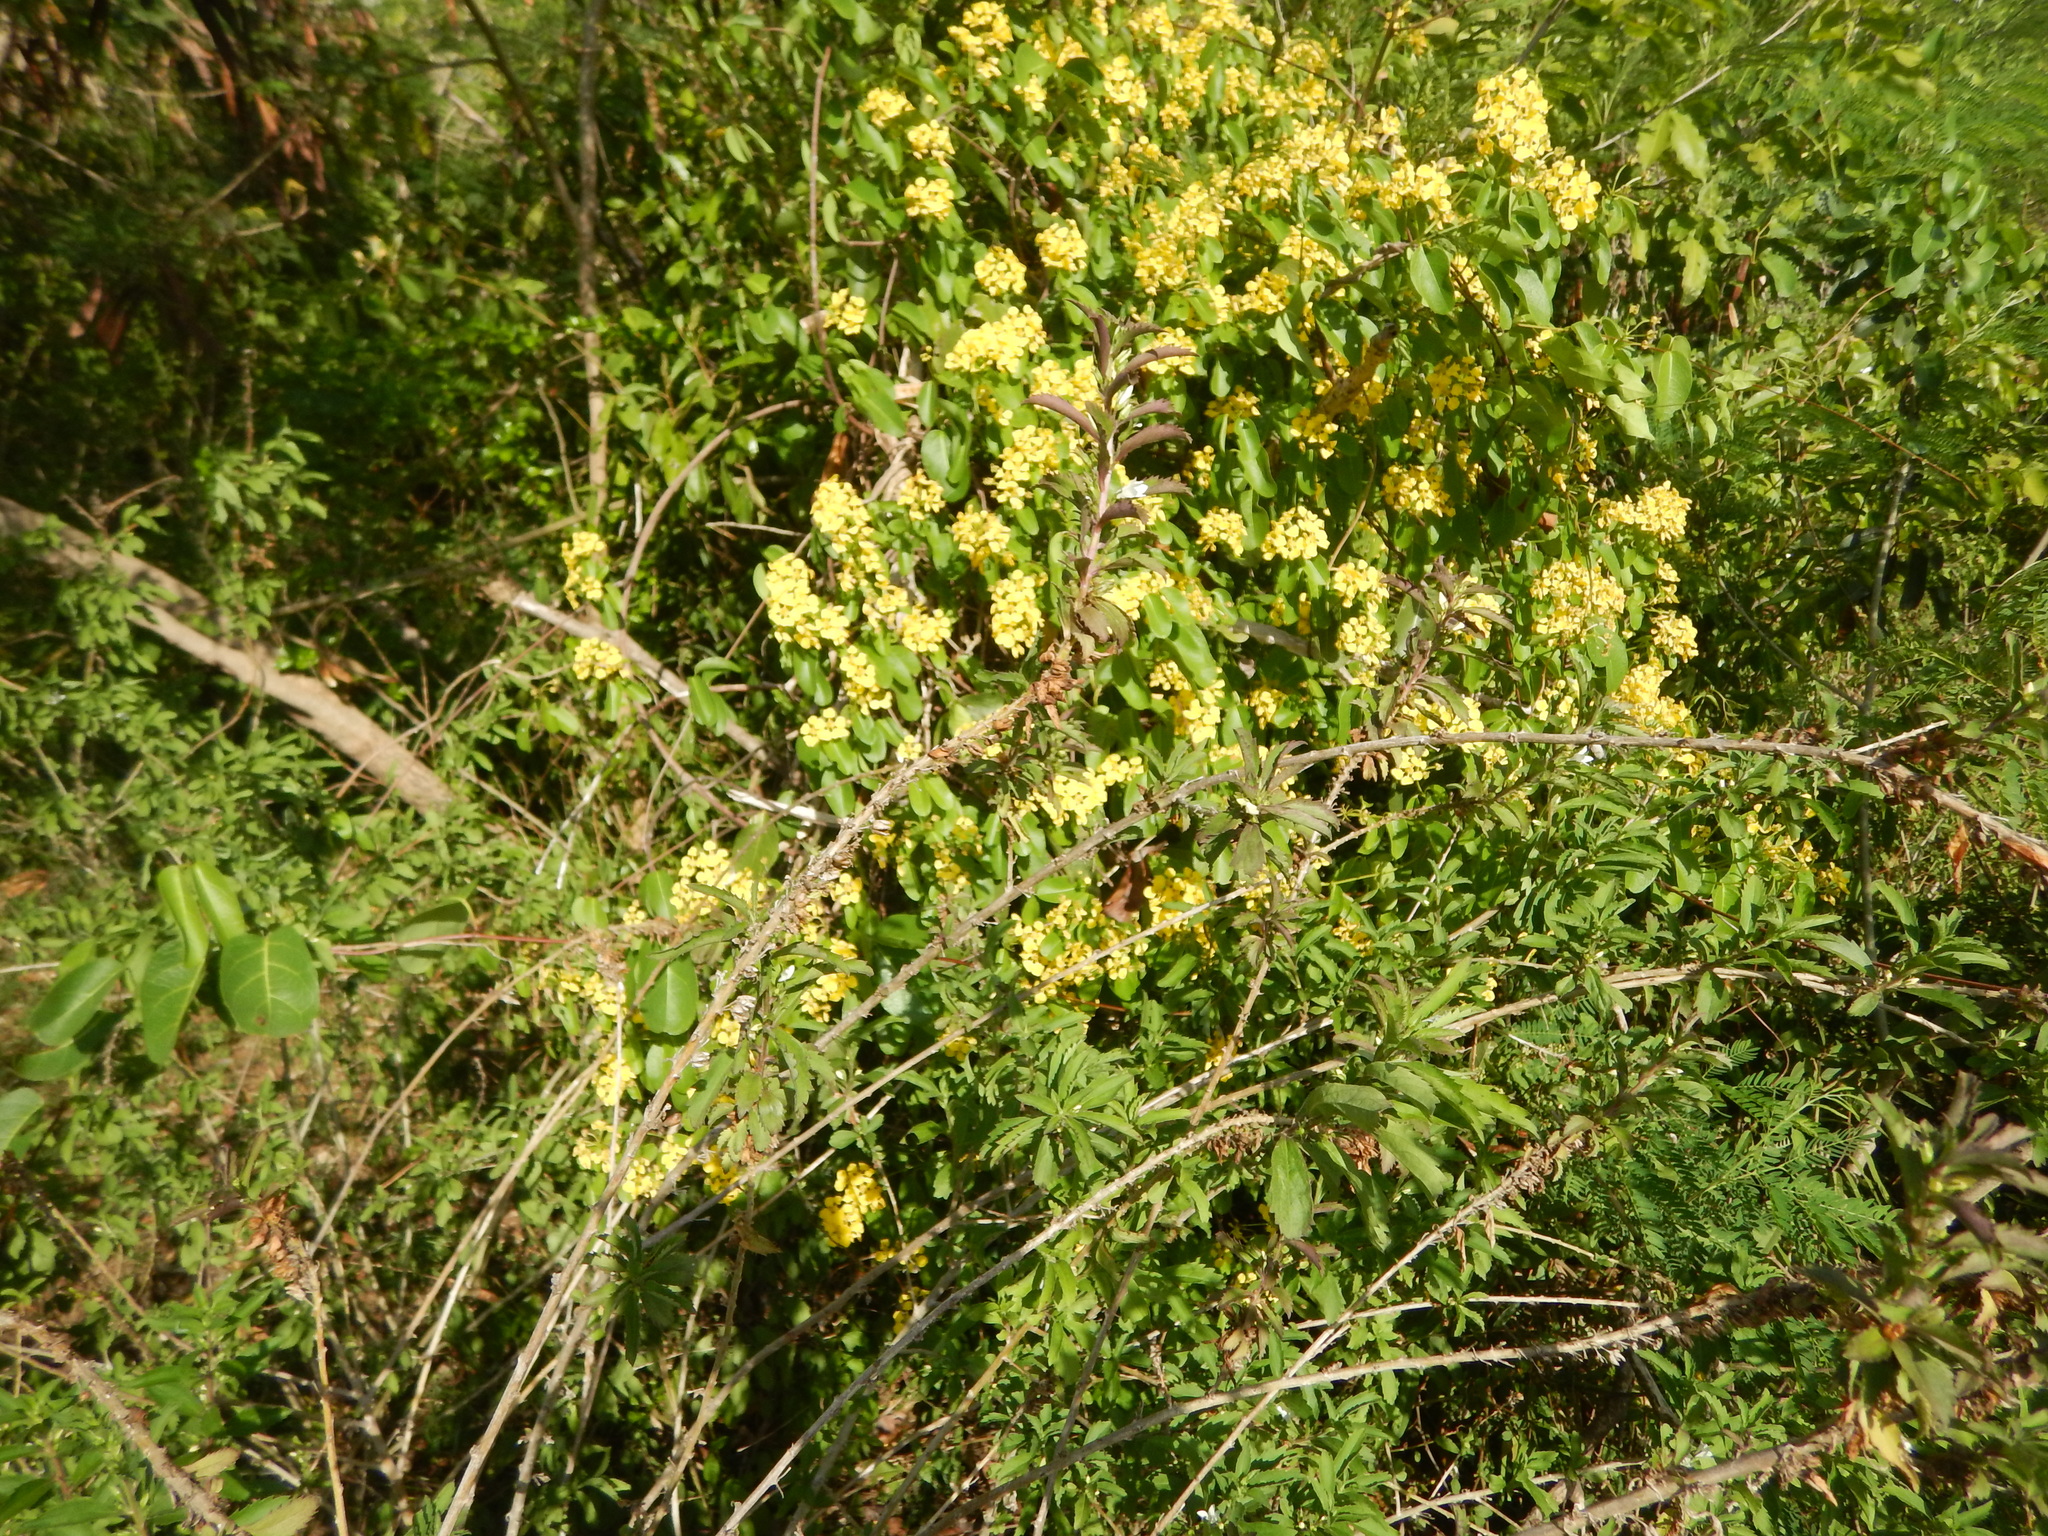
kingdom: Plantae
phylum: Tracheophyta
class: Magnoliopsida
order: Malpighiales
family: Malpighiaceae
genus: Stigmaphyllon
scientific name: Stigmaphyllon emarginatum
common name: Monarch amazonvine
